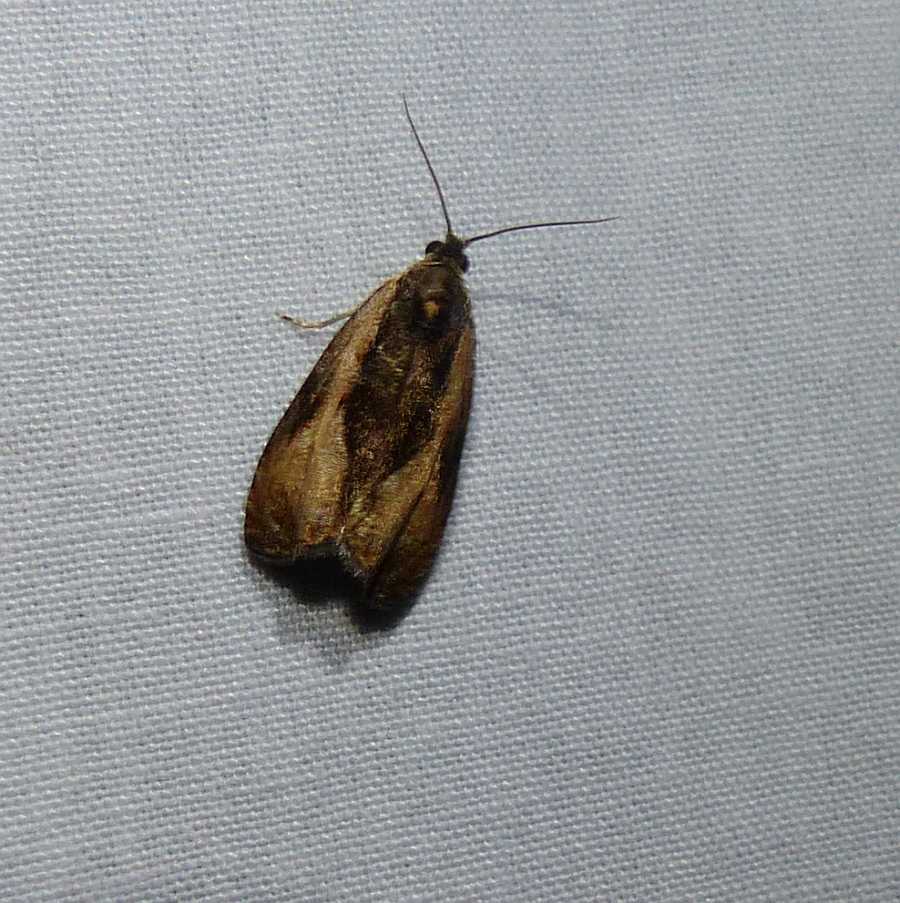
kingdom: Animalia
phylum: Arthropoda
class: Insecta
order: Lepidoptera
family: Tortricidae
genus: Olethreutes
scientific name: Olethreutes nigranum
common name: Variable nigranum moth
